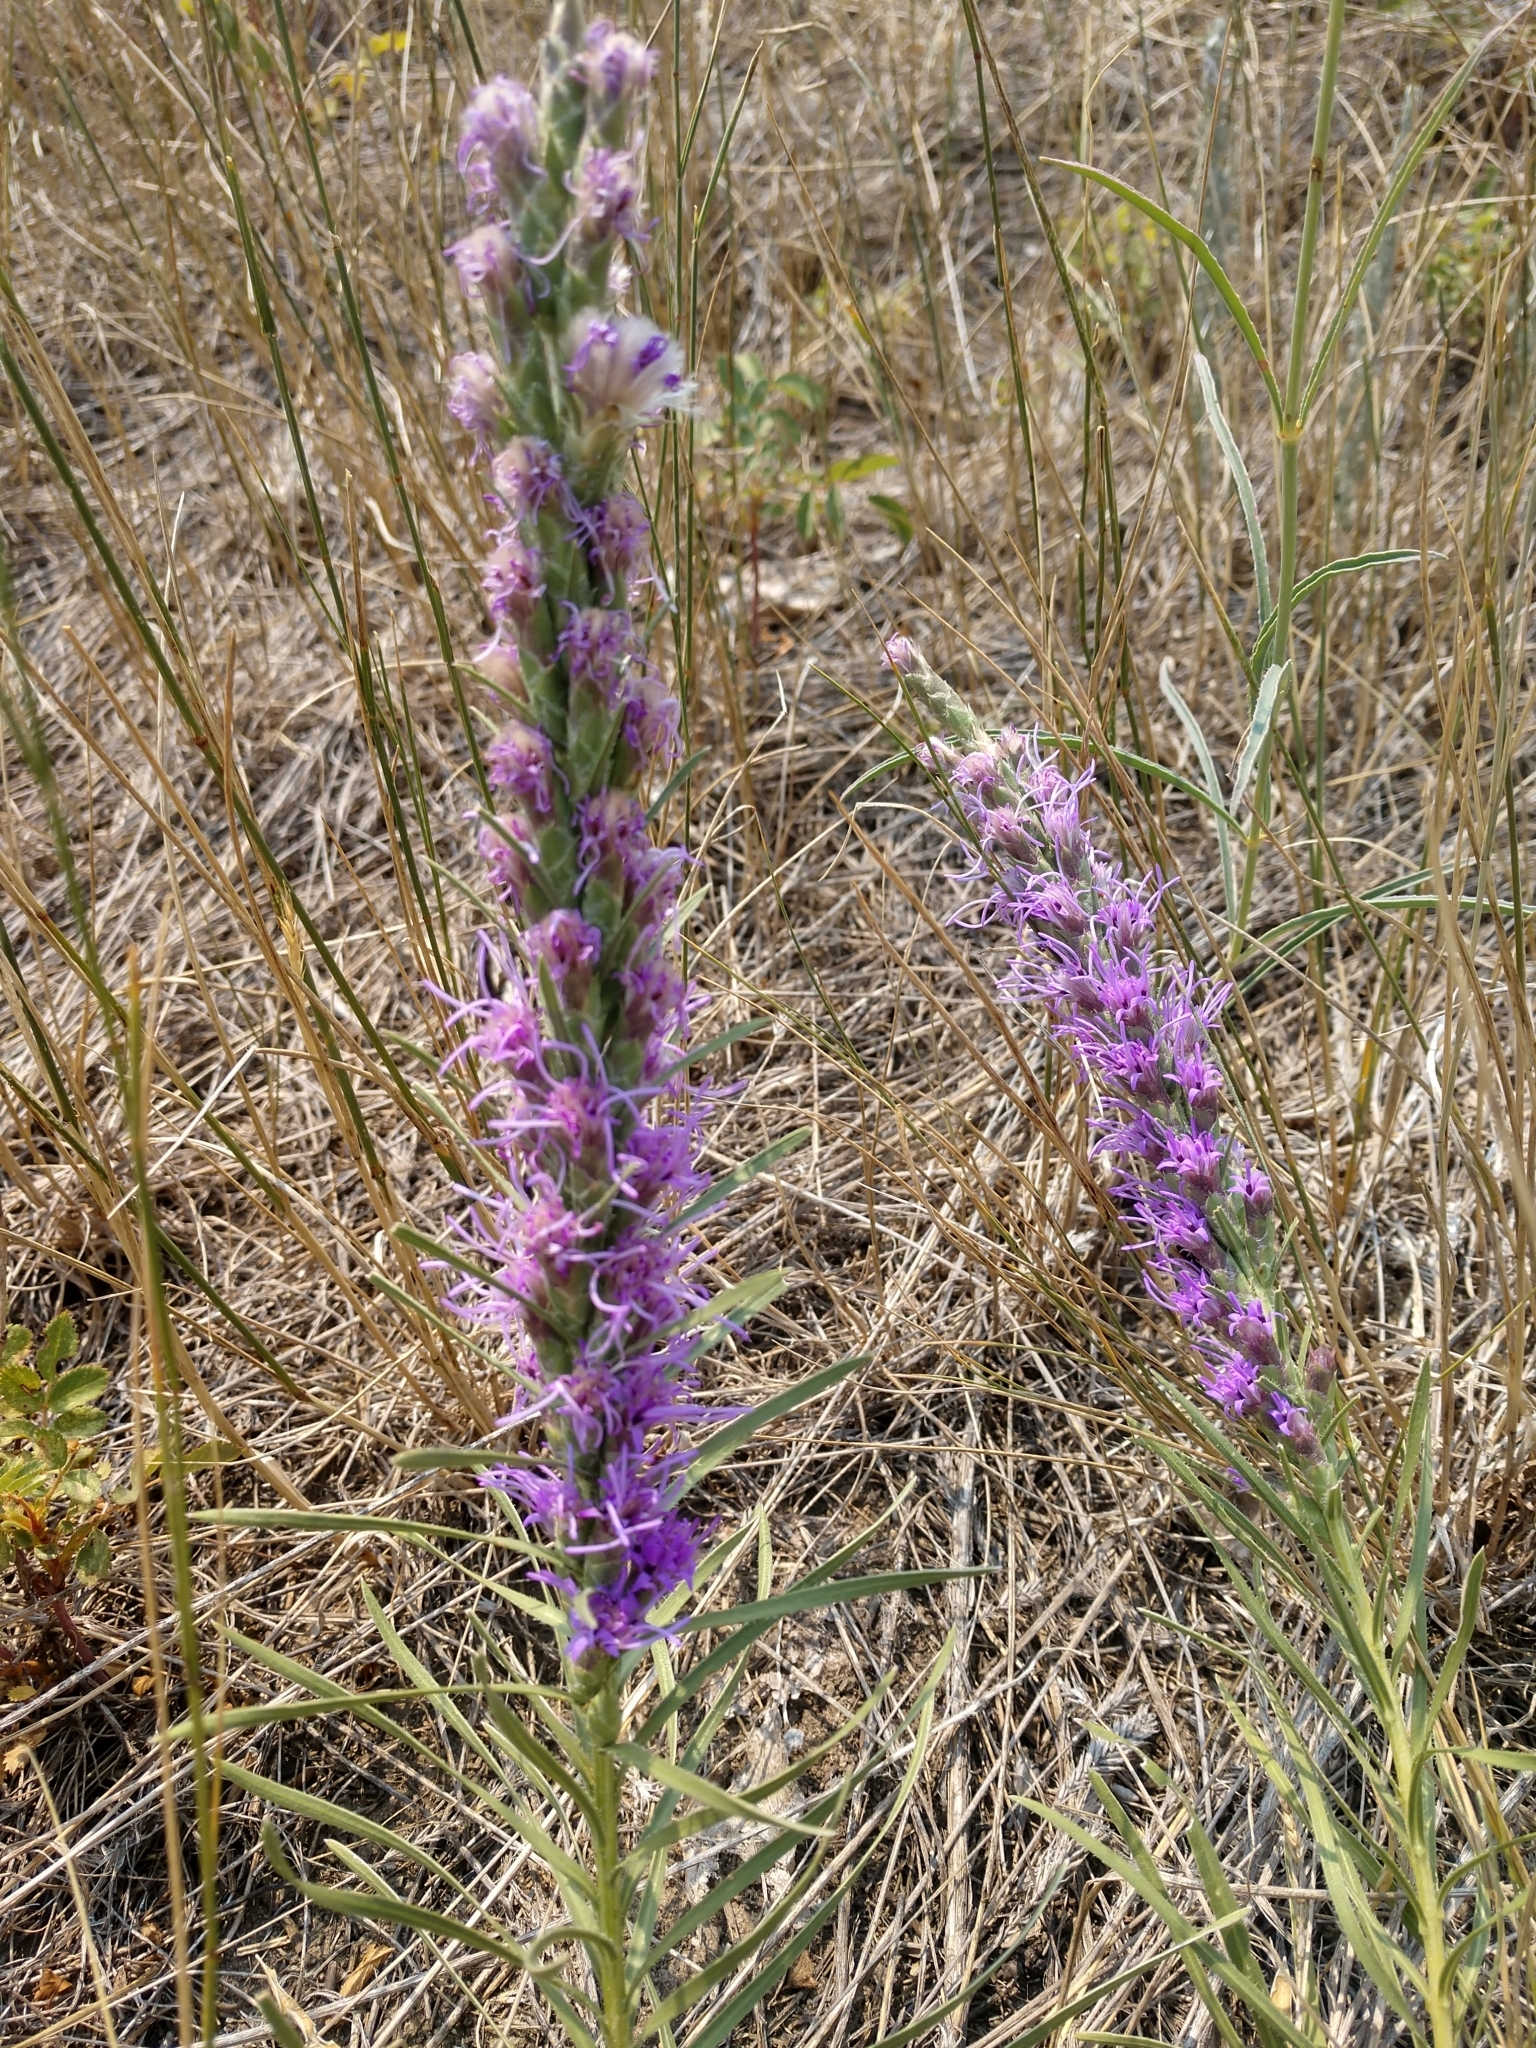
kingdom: Plantae
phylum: Tracheophyta
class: Magnoliopsida
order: Asterales
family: Asteraceae
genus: Liatris
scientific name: Liatris punctata
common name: Dotted gayfeather
